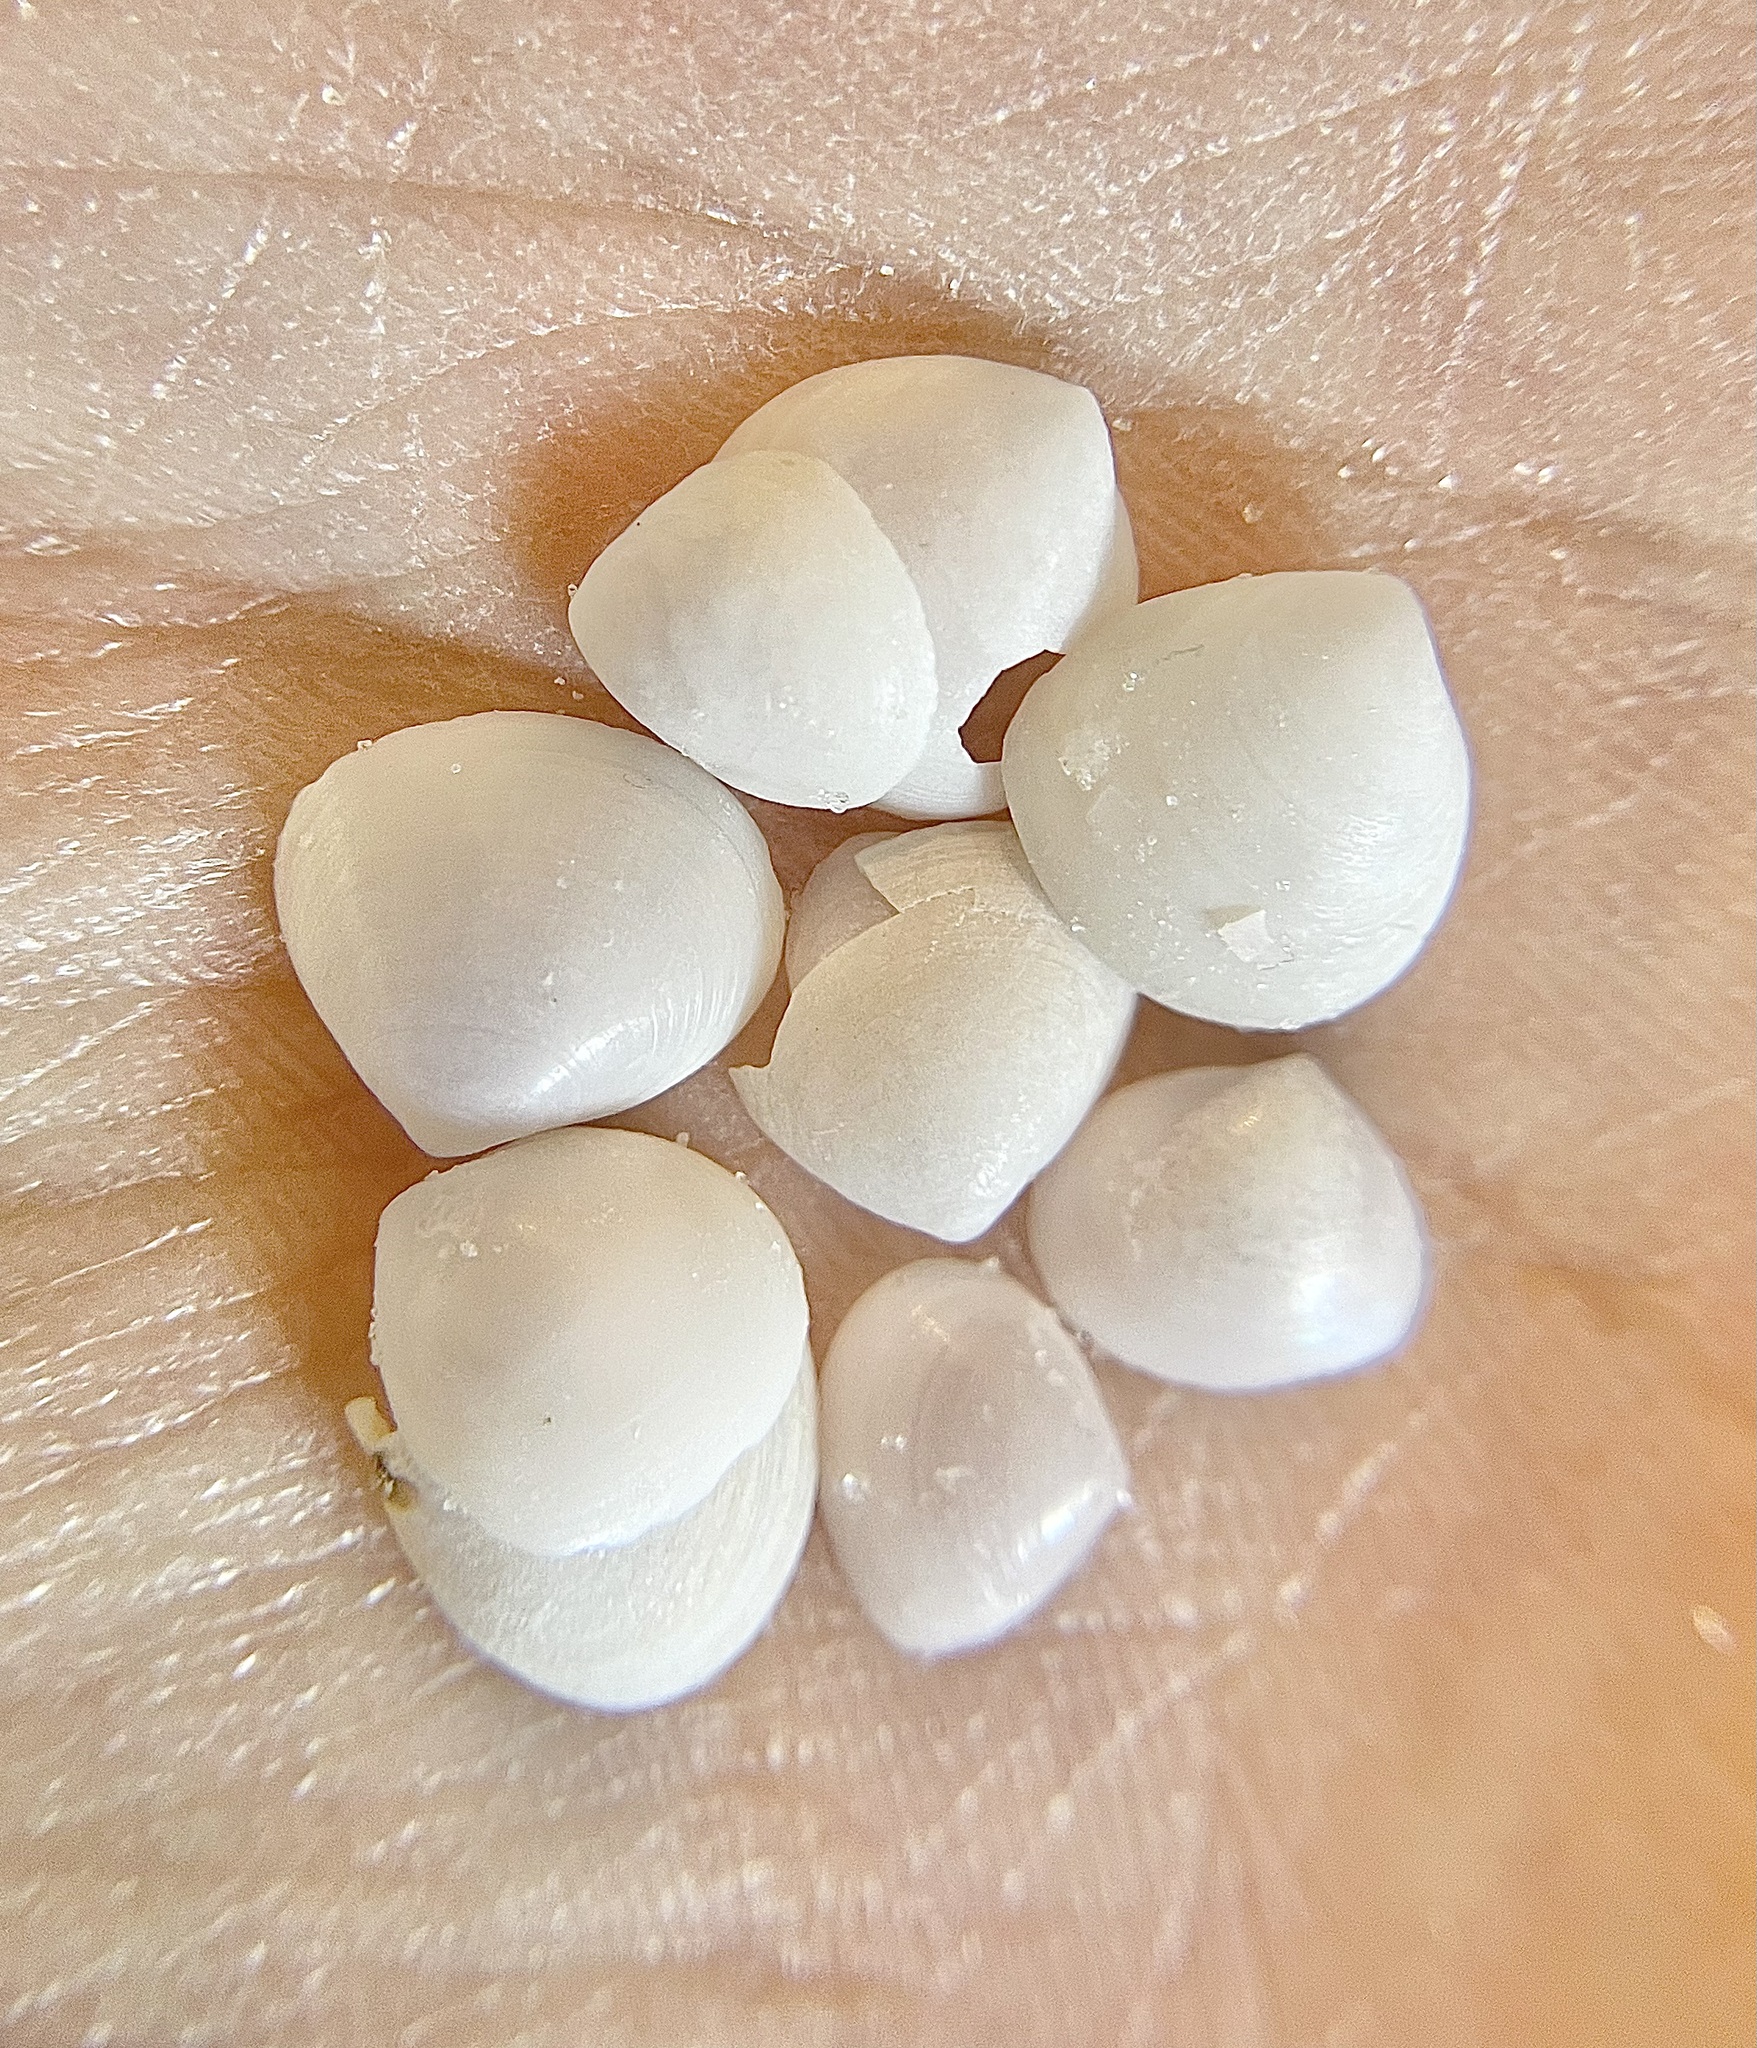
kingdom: Animalia
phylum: Mollusca
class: Bivalvia
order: Cardiida
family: Semelidae
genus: Abra
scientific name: Abra aequalis
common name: Common atlantic abra
